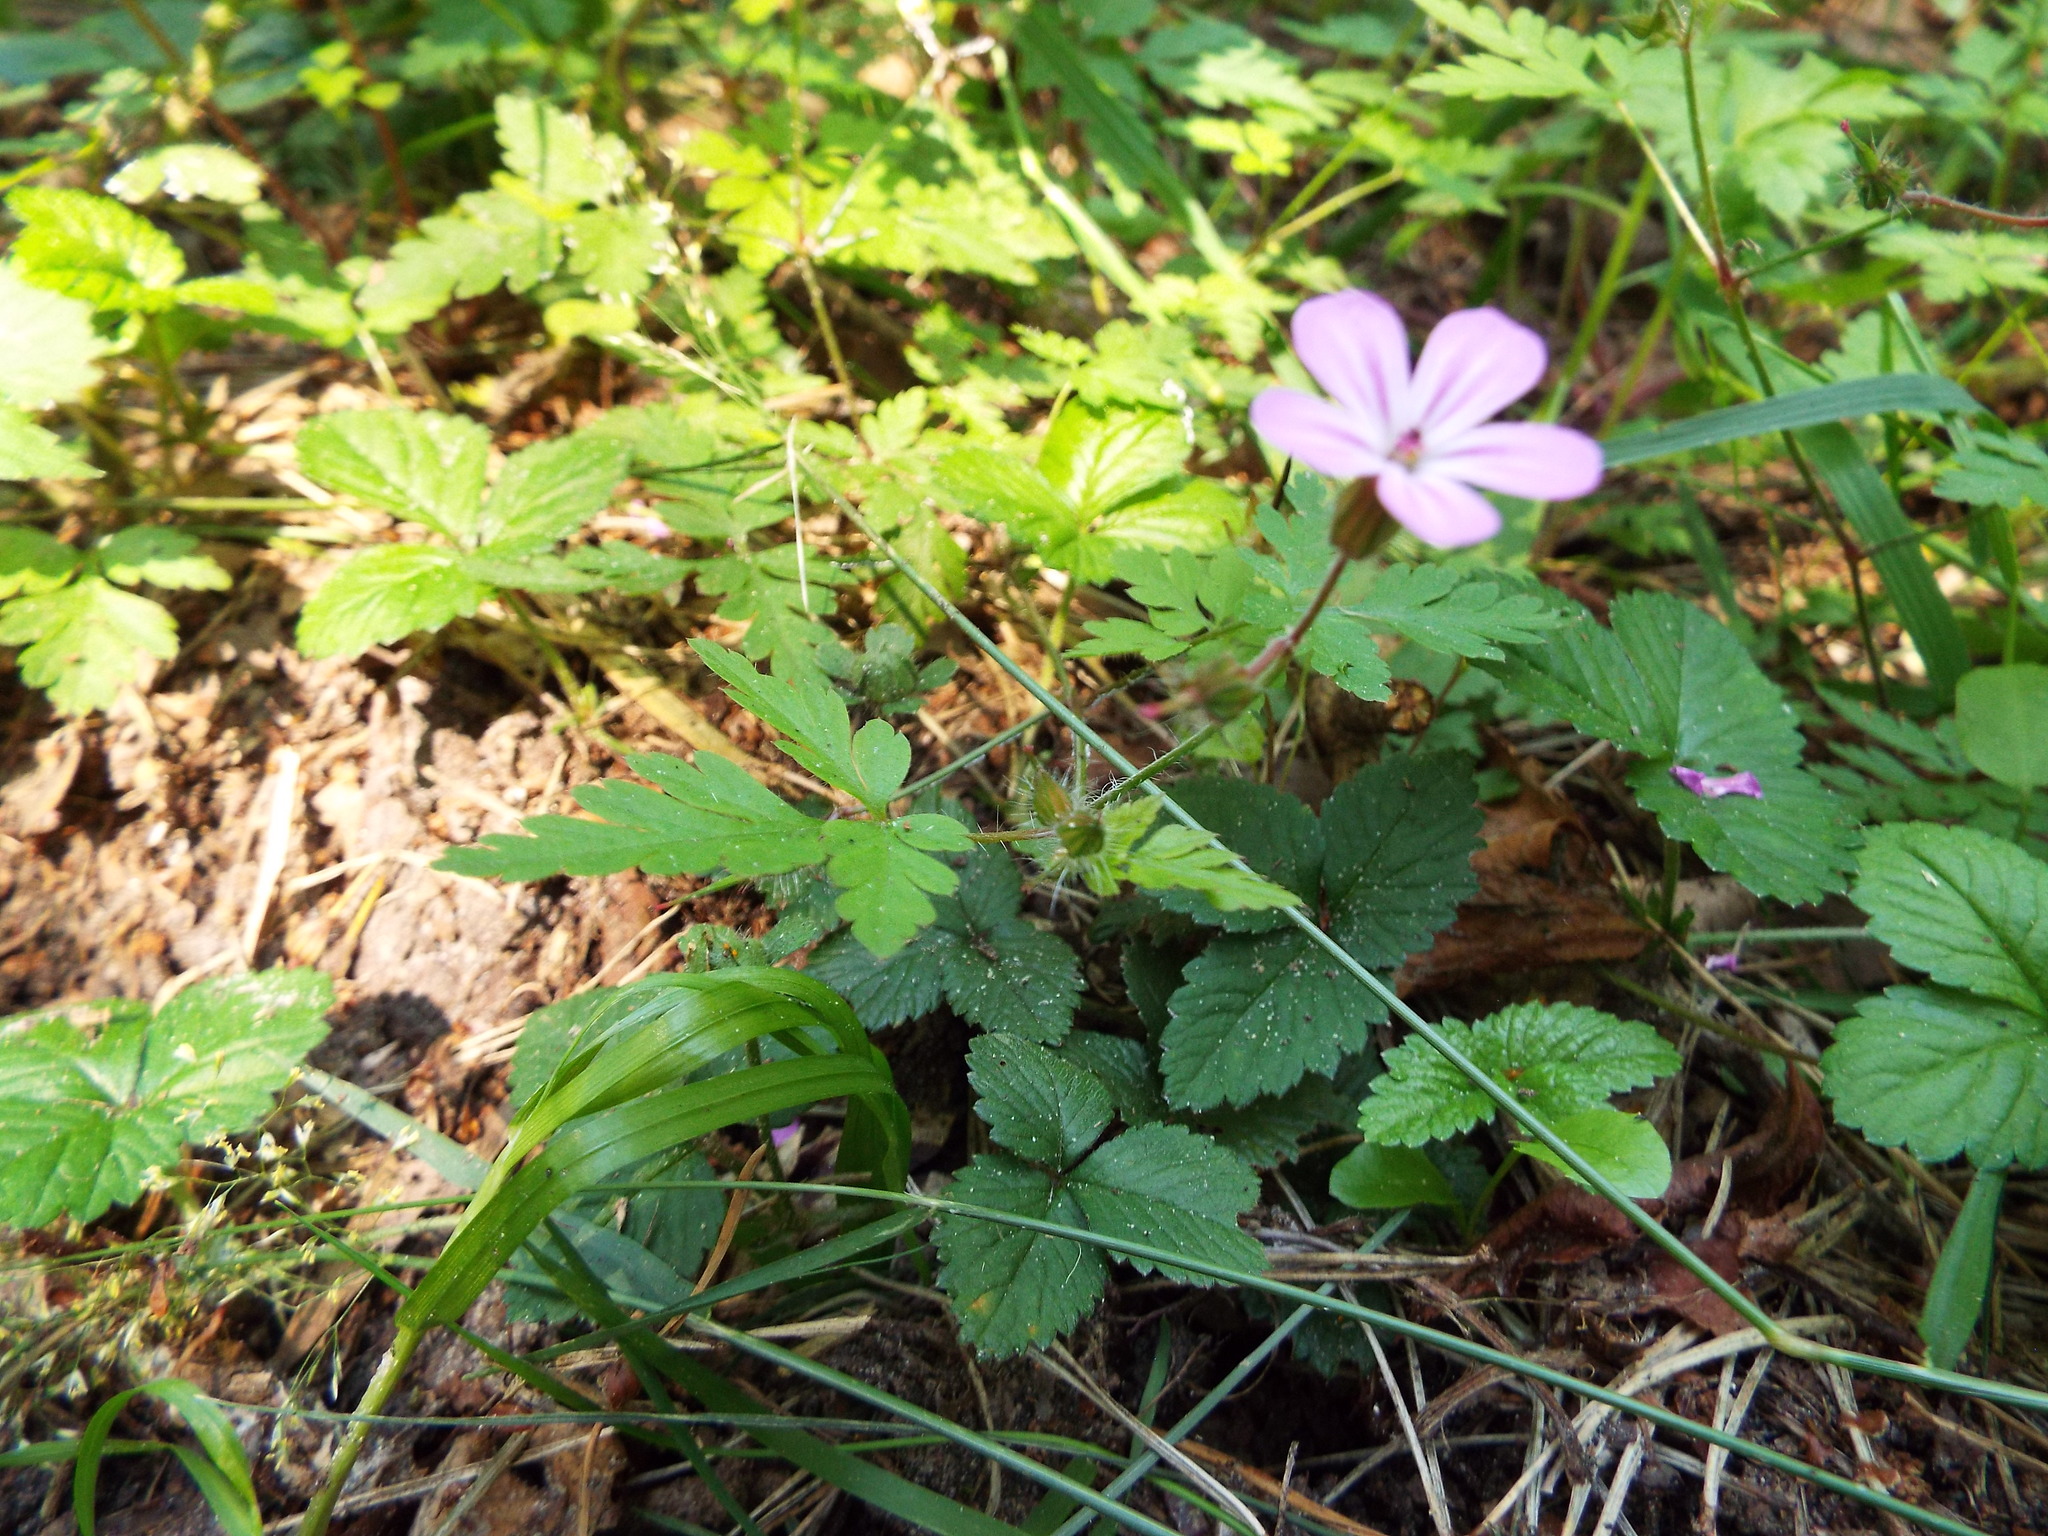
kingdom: Plantae
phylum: Tracheophyta
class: Magnoliopsida
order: Geraniales
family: Geraniaceae
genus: Geranium
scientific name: Geranium robertianum
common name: Herb-robert
